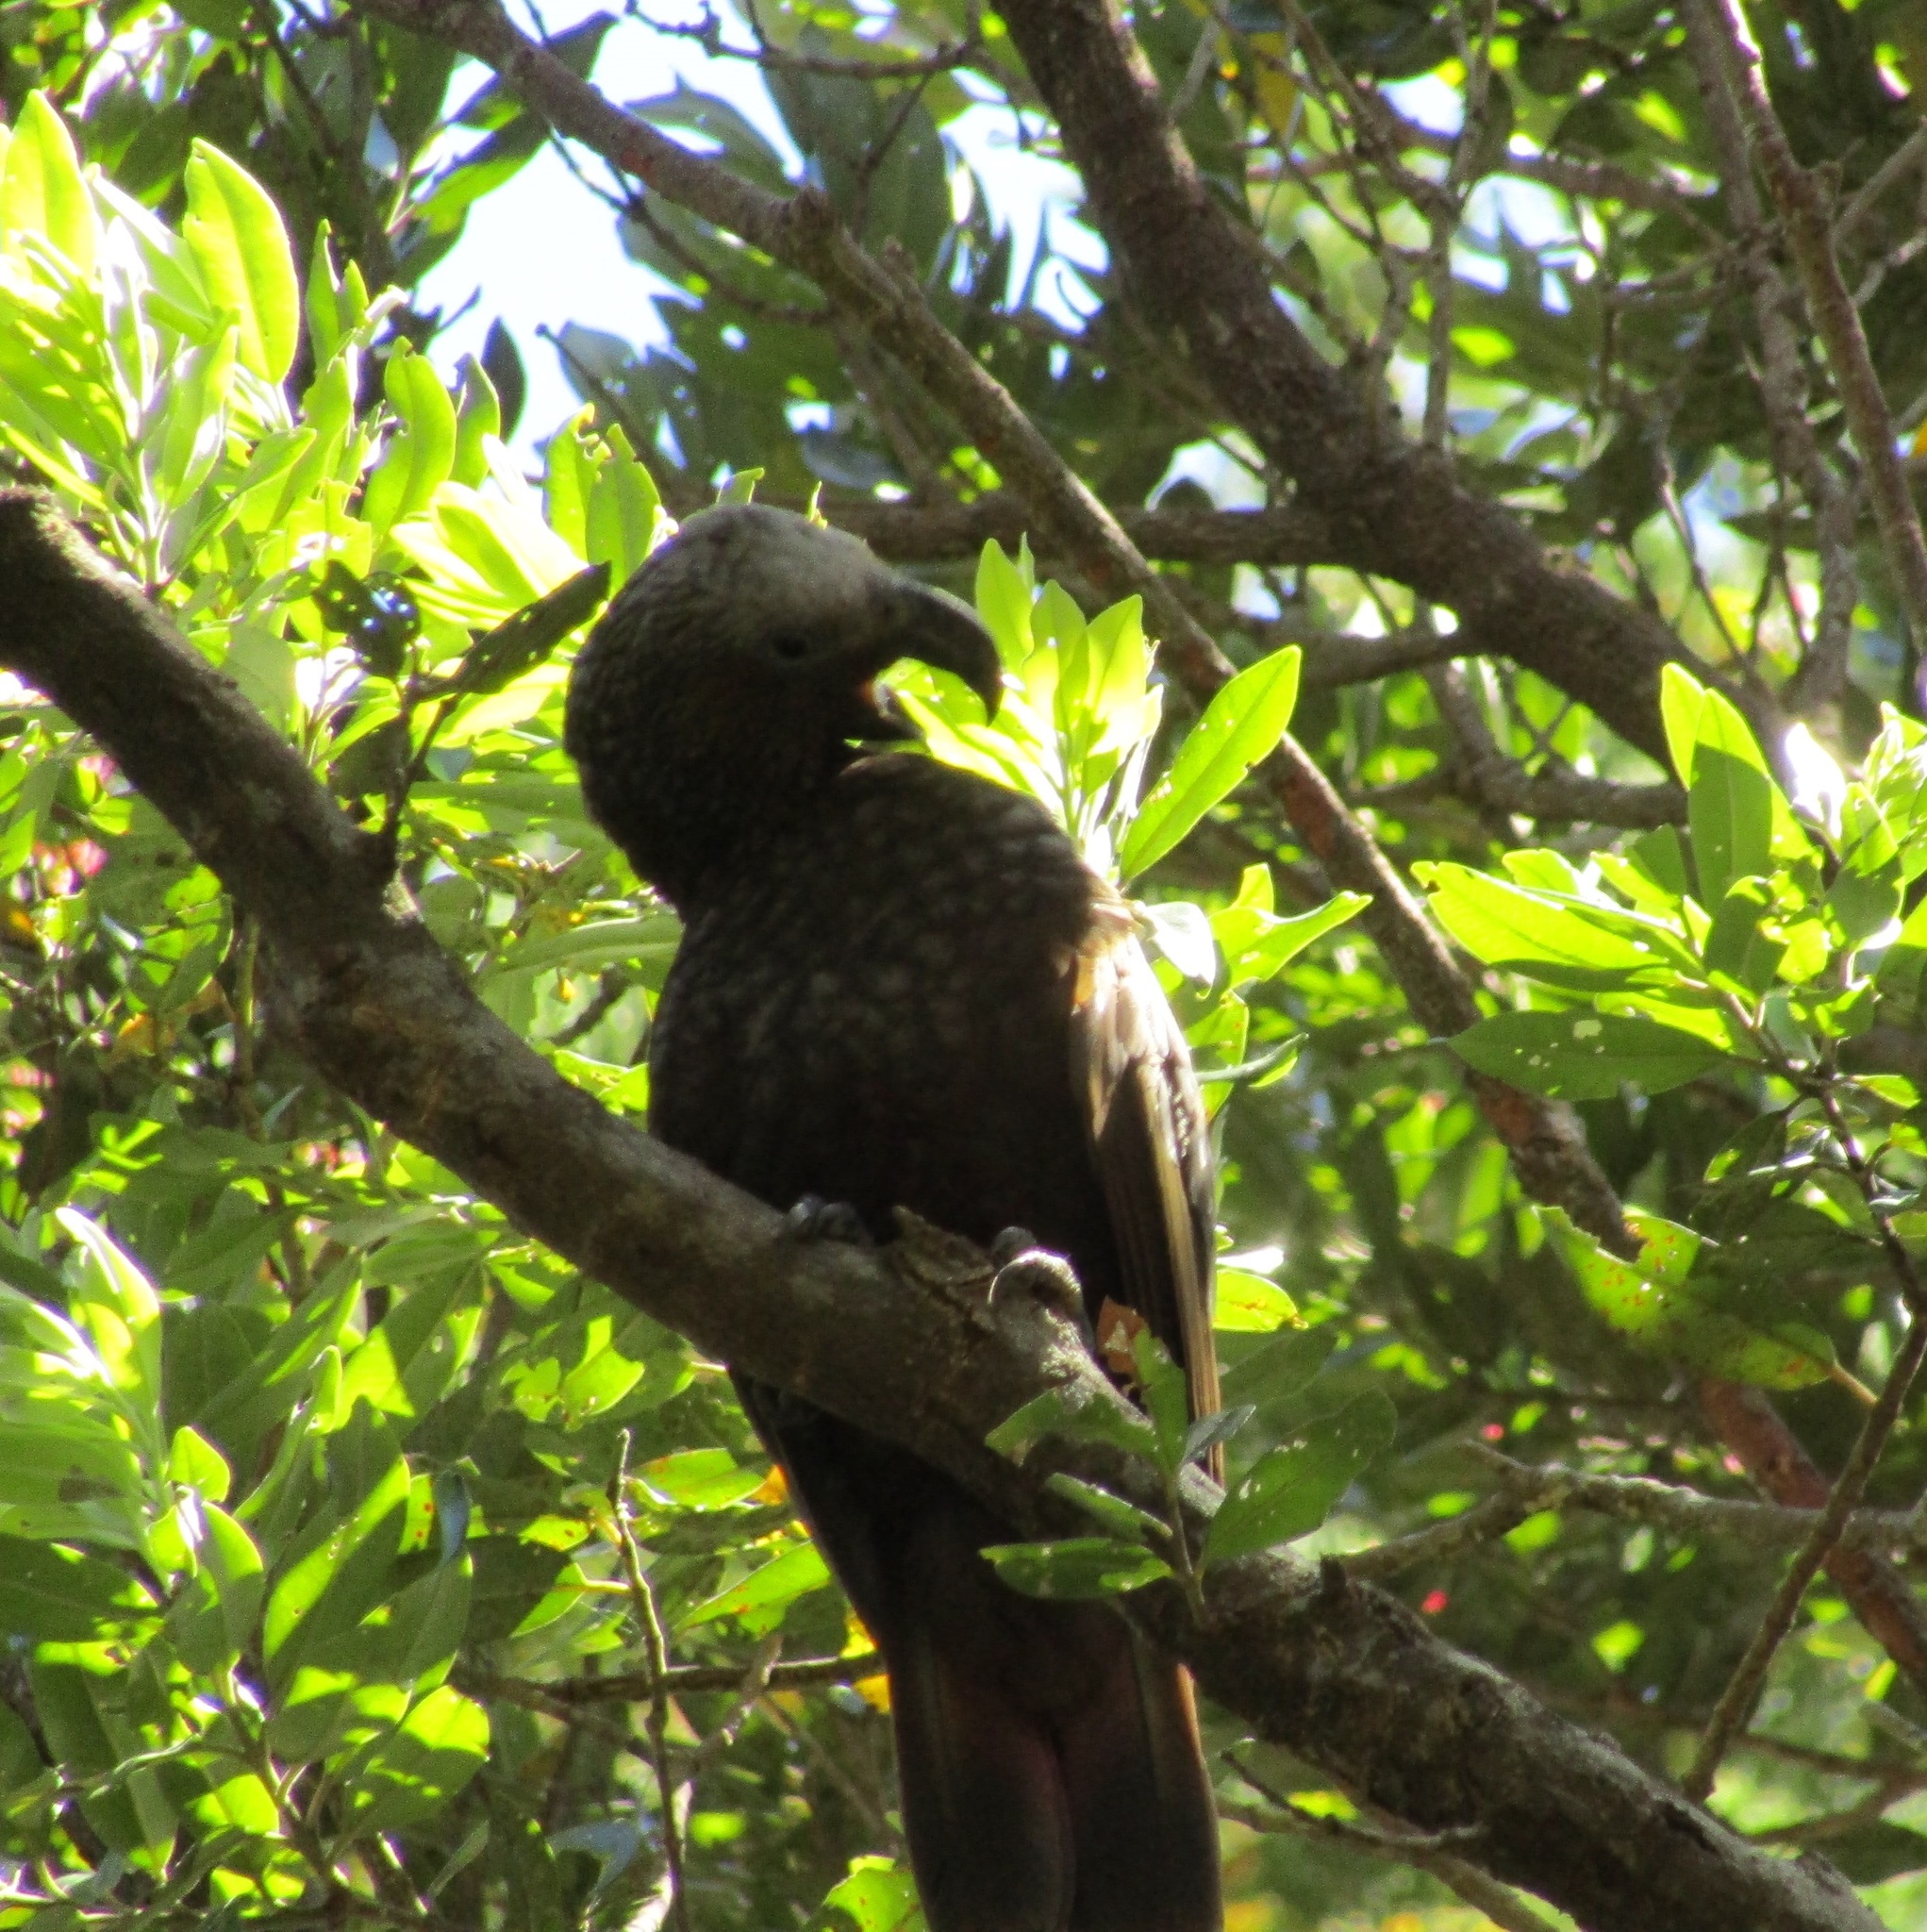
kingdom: Animalia
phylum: Chordata
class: Aves
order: Psittaciformes
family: Psittacidae
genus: Nestor
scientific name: Nestor meridionalis
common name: New zealand kaka
